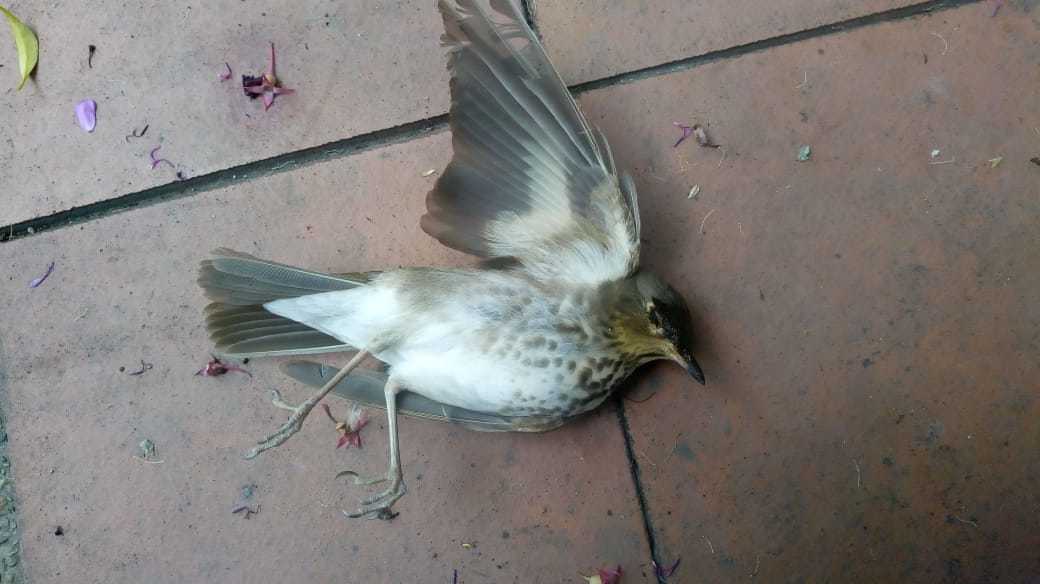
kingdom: Animalia
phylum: Chordata
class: Aves
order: Passeriformes
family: Turdidae
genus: Catharus
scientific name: Catharus ustulatus
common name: Swainson's thrush
